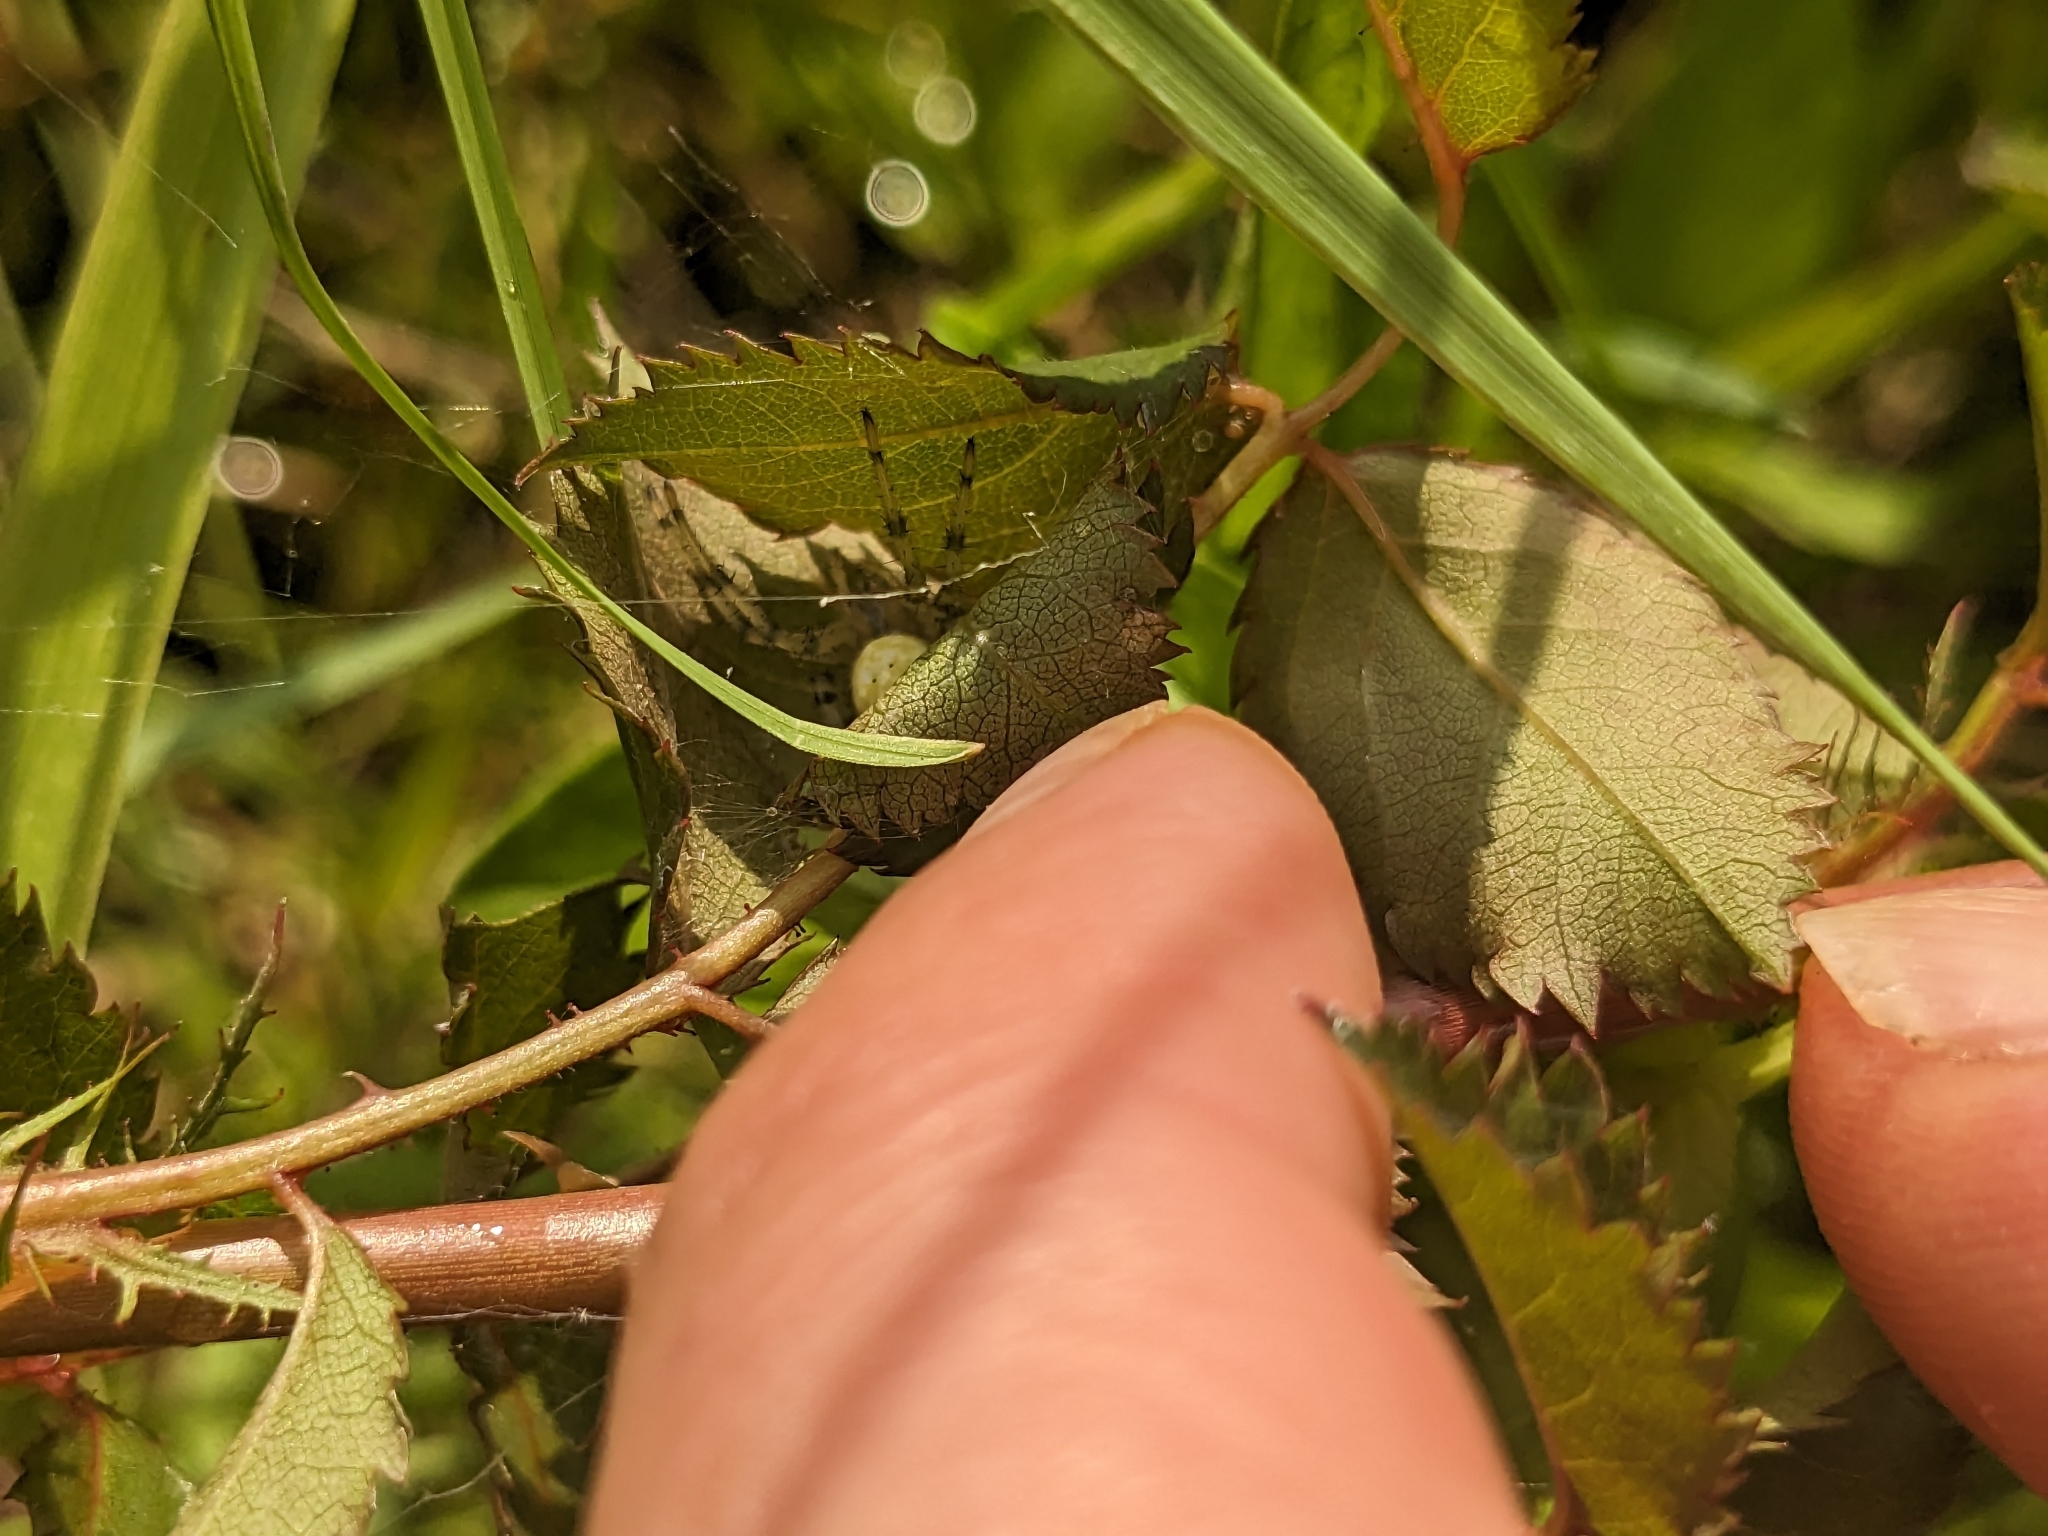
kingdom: Animalia
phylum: Arthropoda
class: Arachnida
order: Araneae
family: Araneidae
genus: Araneus
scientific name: Araneus trifolium
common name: Shamrock orbweaver
